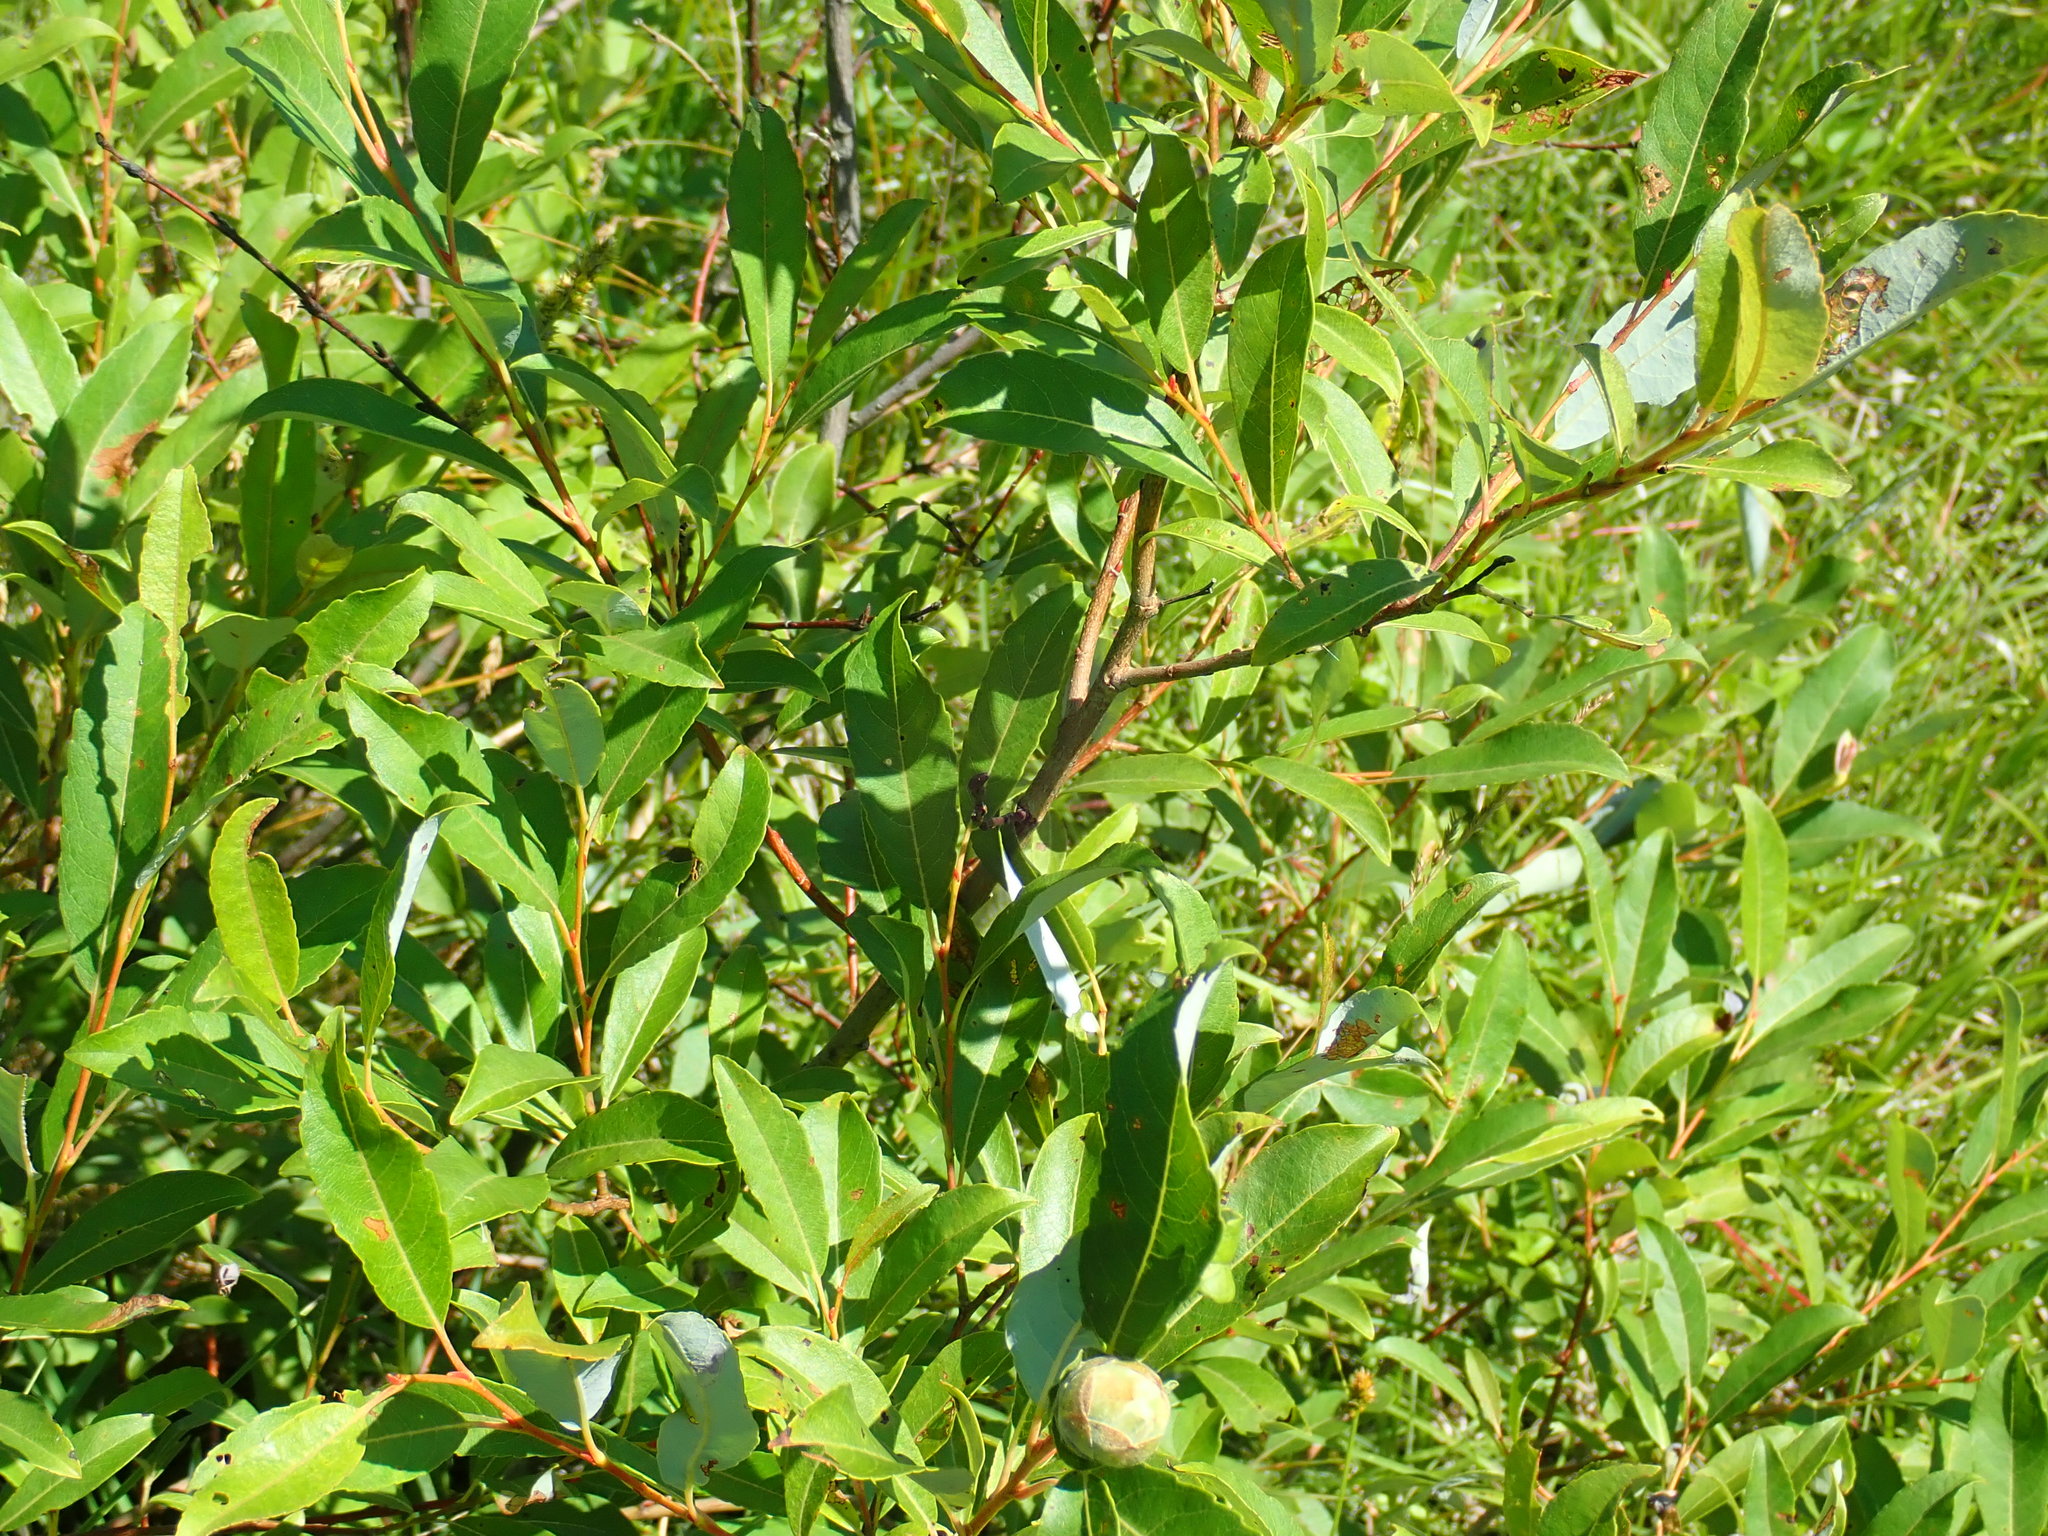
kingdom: Animalia
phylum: Arthropoda
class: Insecta
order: Diptera
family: Cecidomyiidae
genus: Rabdophaga
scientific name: Rabdophaga strobiloides
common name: Willow pinecone gall midge
